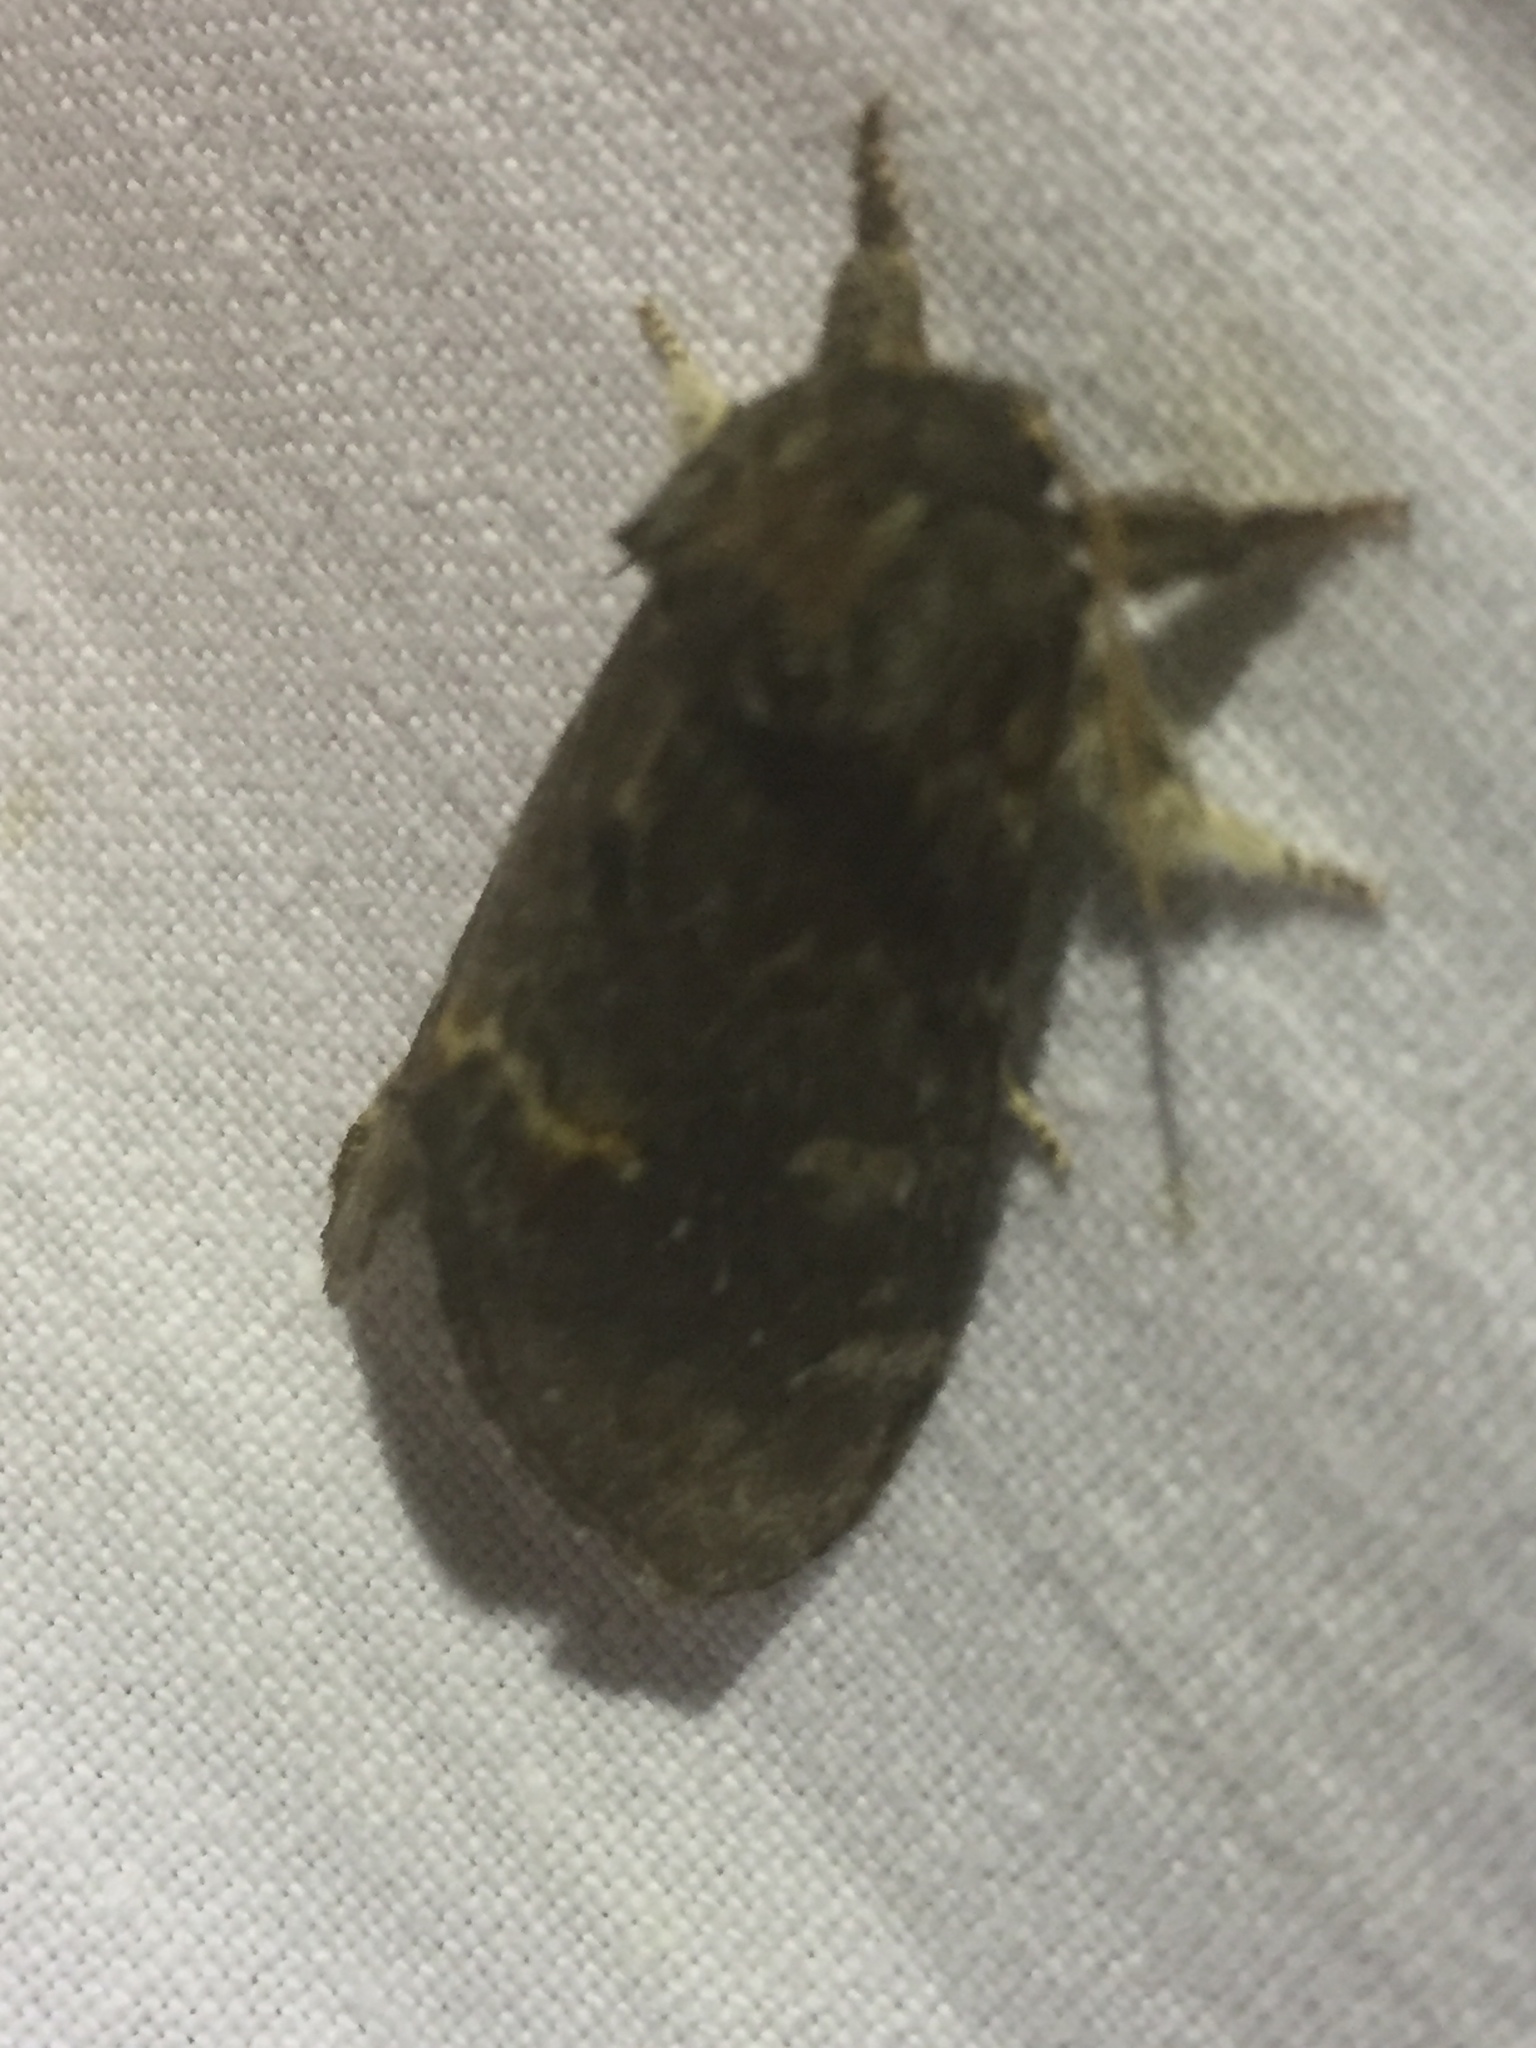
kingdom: Animalia
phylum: Arthropoda
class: Insecta
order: Lepidoptera
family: Notodontidae
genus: Notodonta
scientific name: Notodonta dromedarius
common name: Iron prominent
